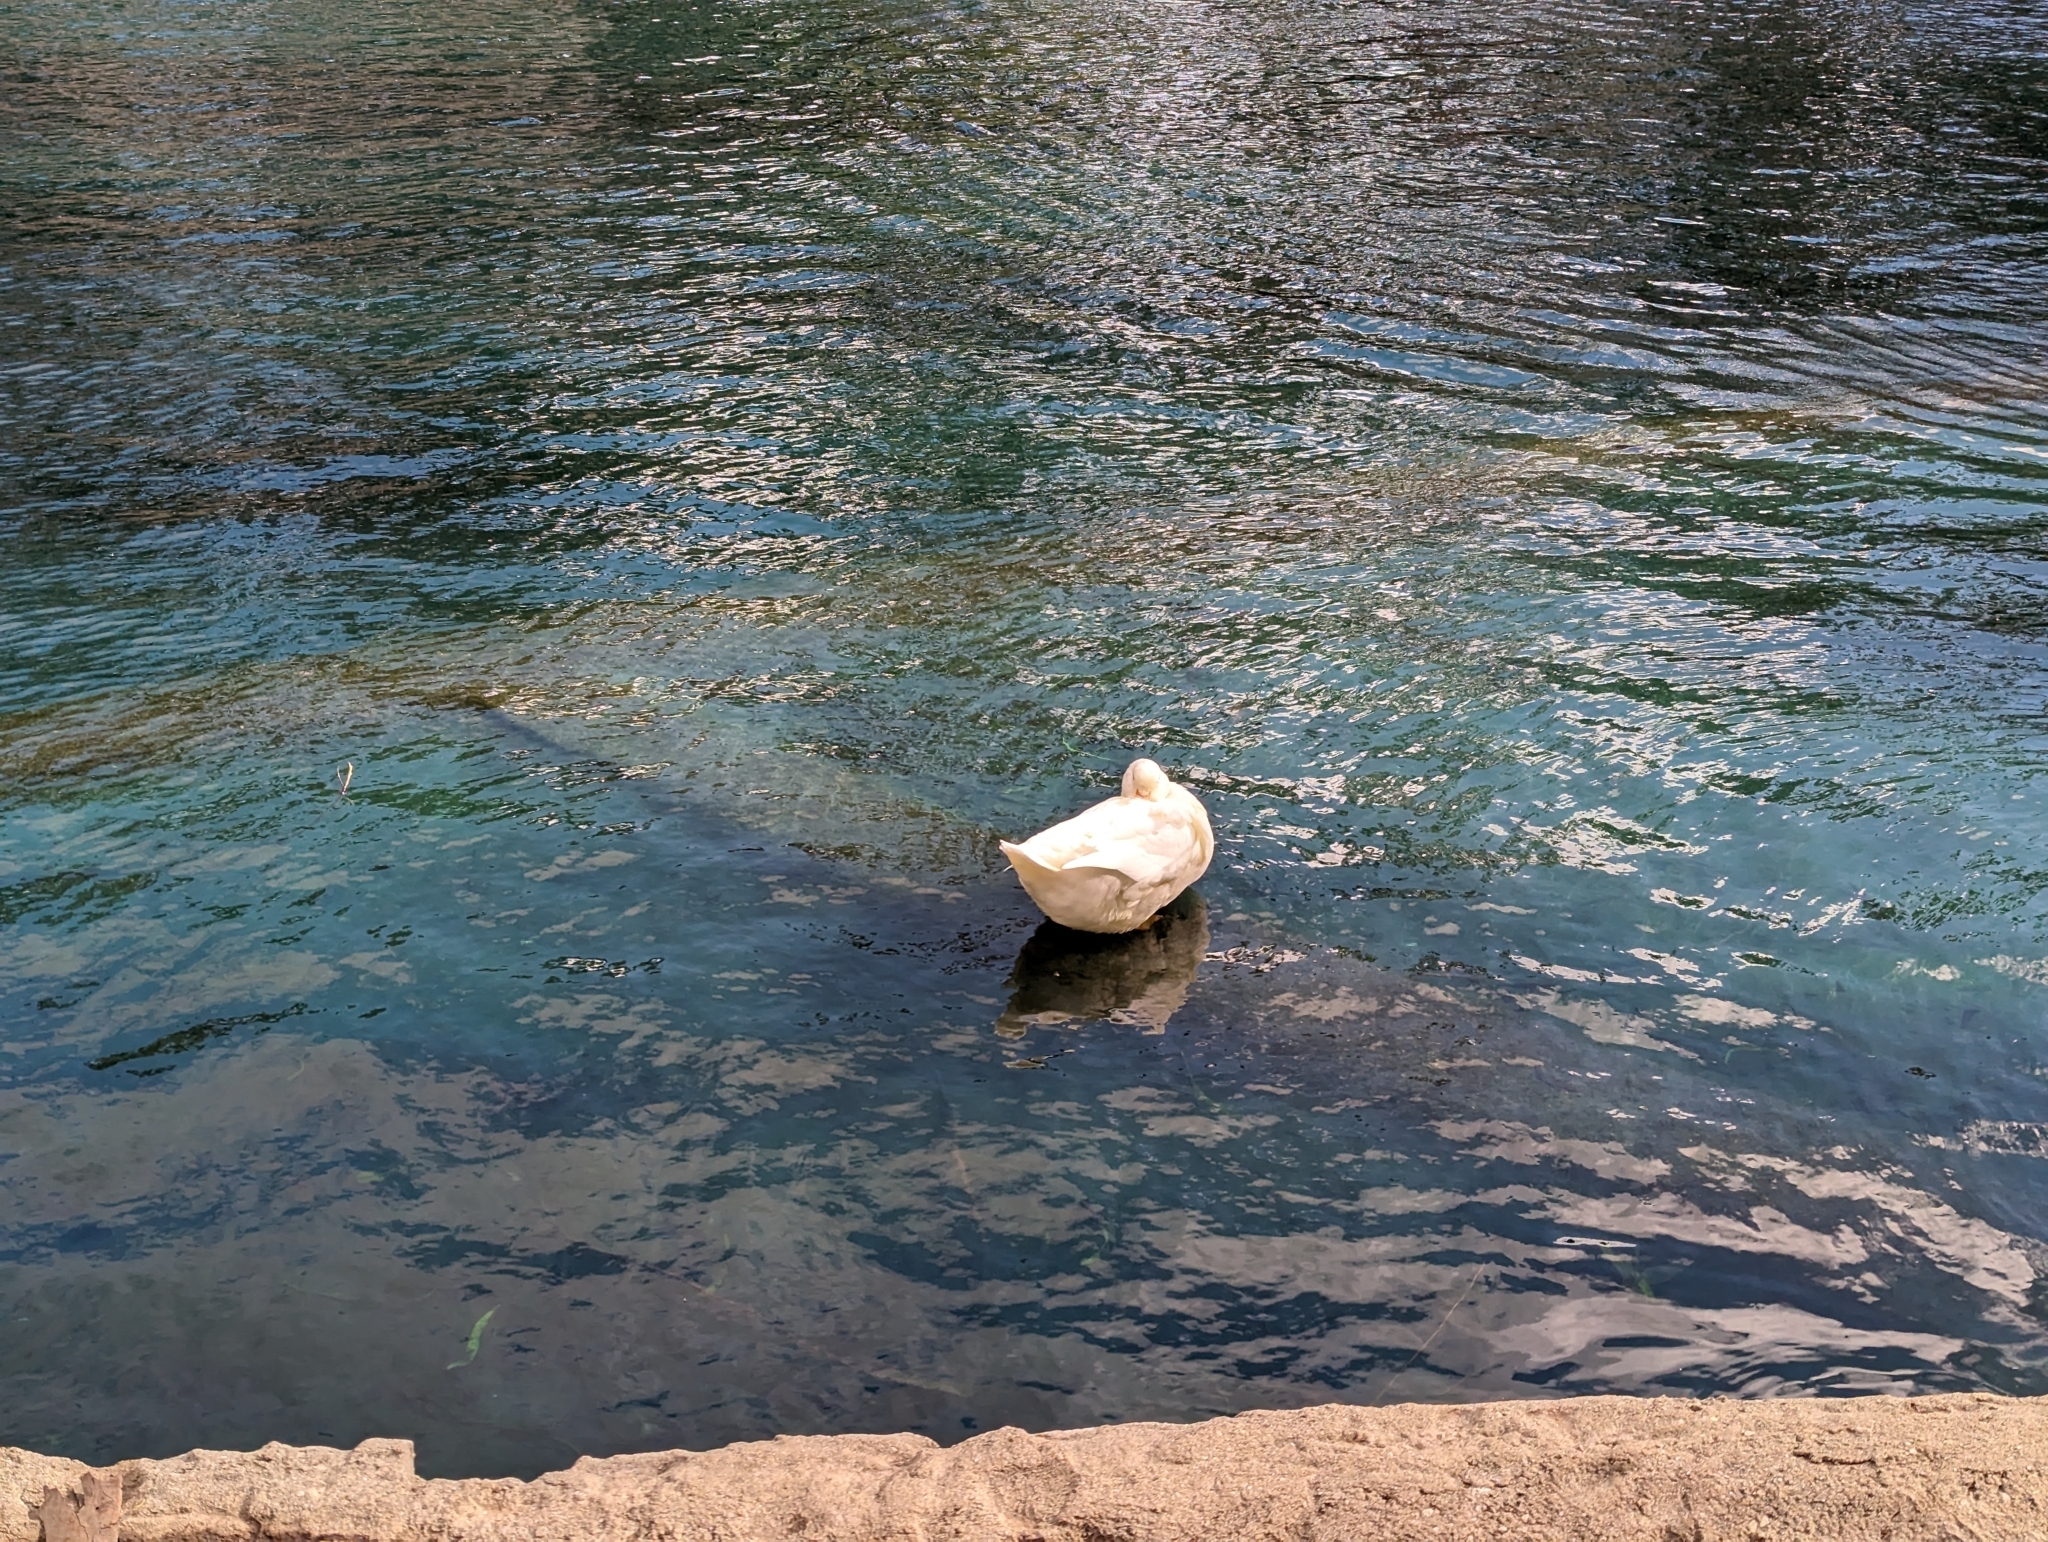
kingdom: Animalia
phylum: Chordata
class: Aves
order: Anseriformes
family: Anatidae
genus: Anas
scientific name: Anas platyrhynchos
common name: Mallard
